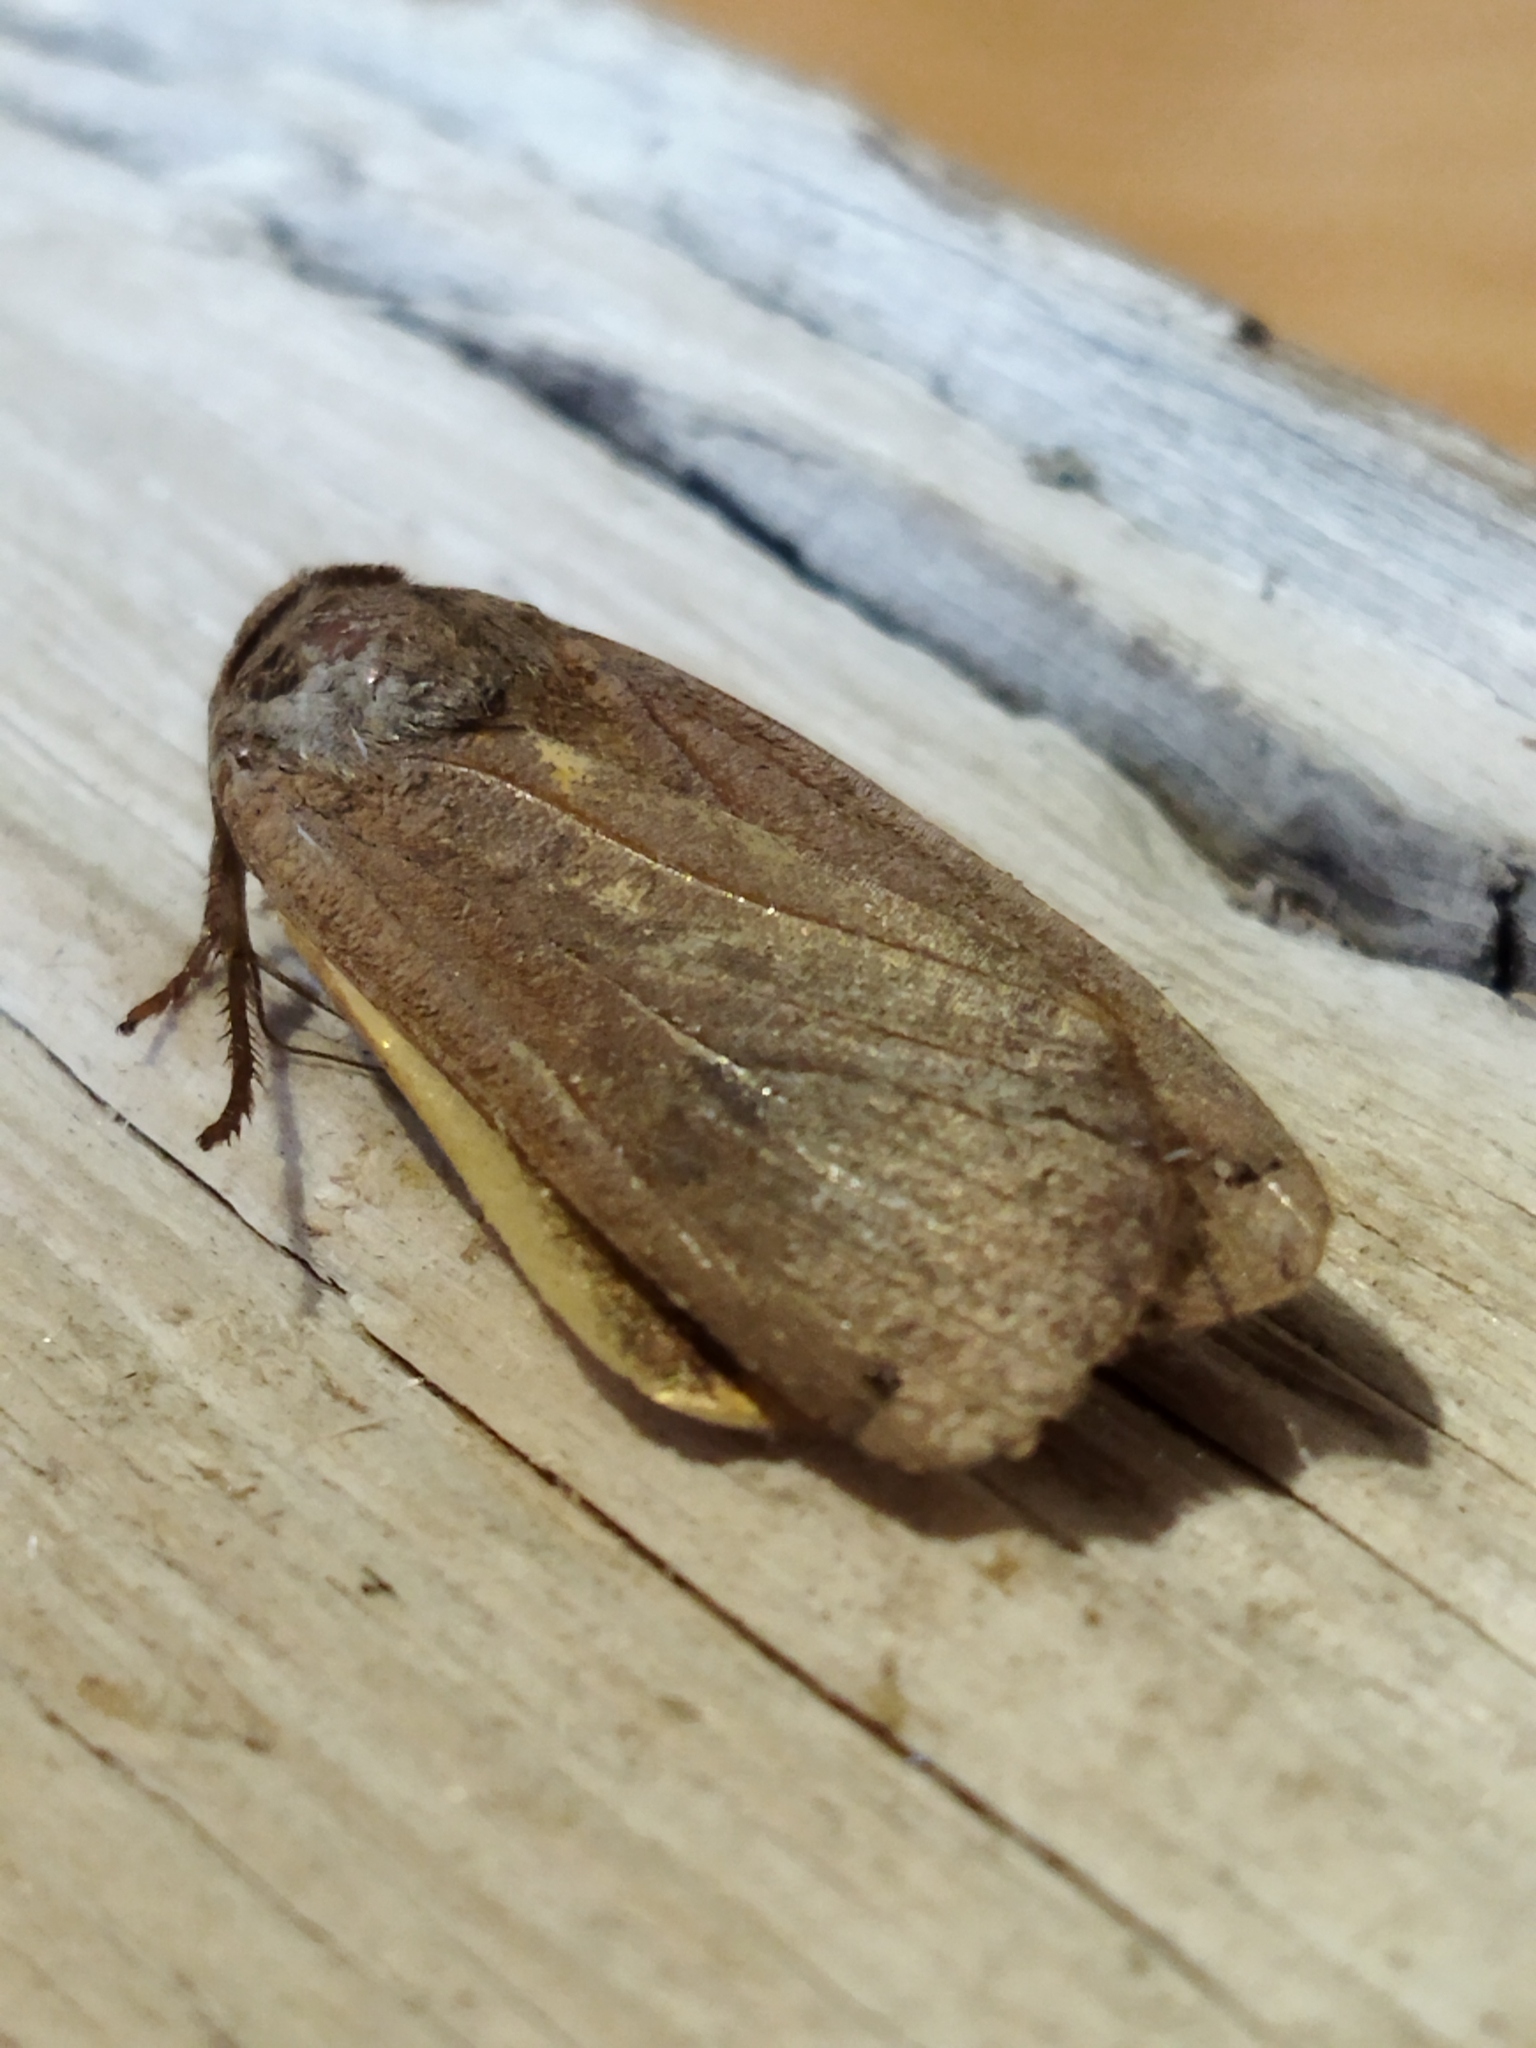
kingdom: Animalia
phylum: Arthropoda
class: Insecta
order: Lepidoptera
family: Noctuidae
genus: Noctua
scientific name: Noctua pronuba
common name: Large yellow underwing
